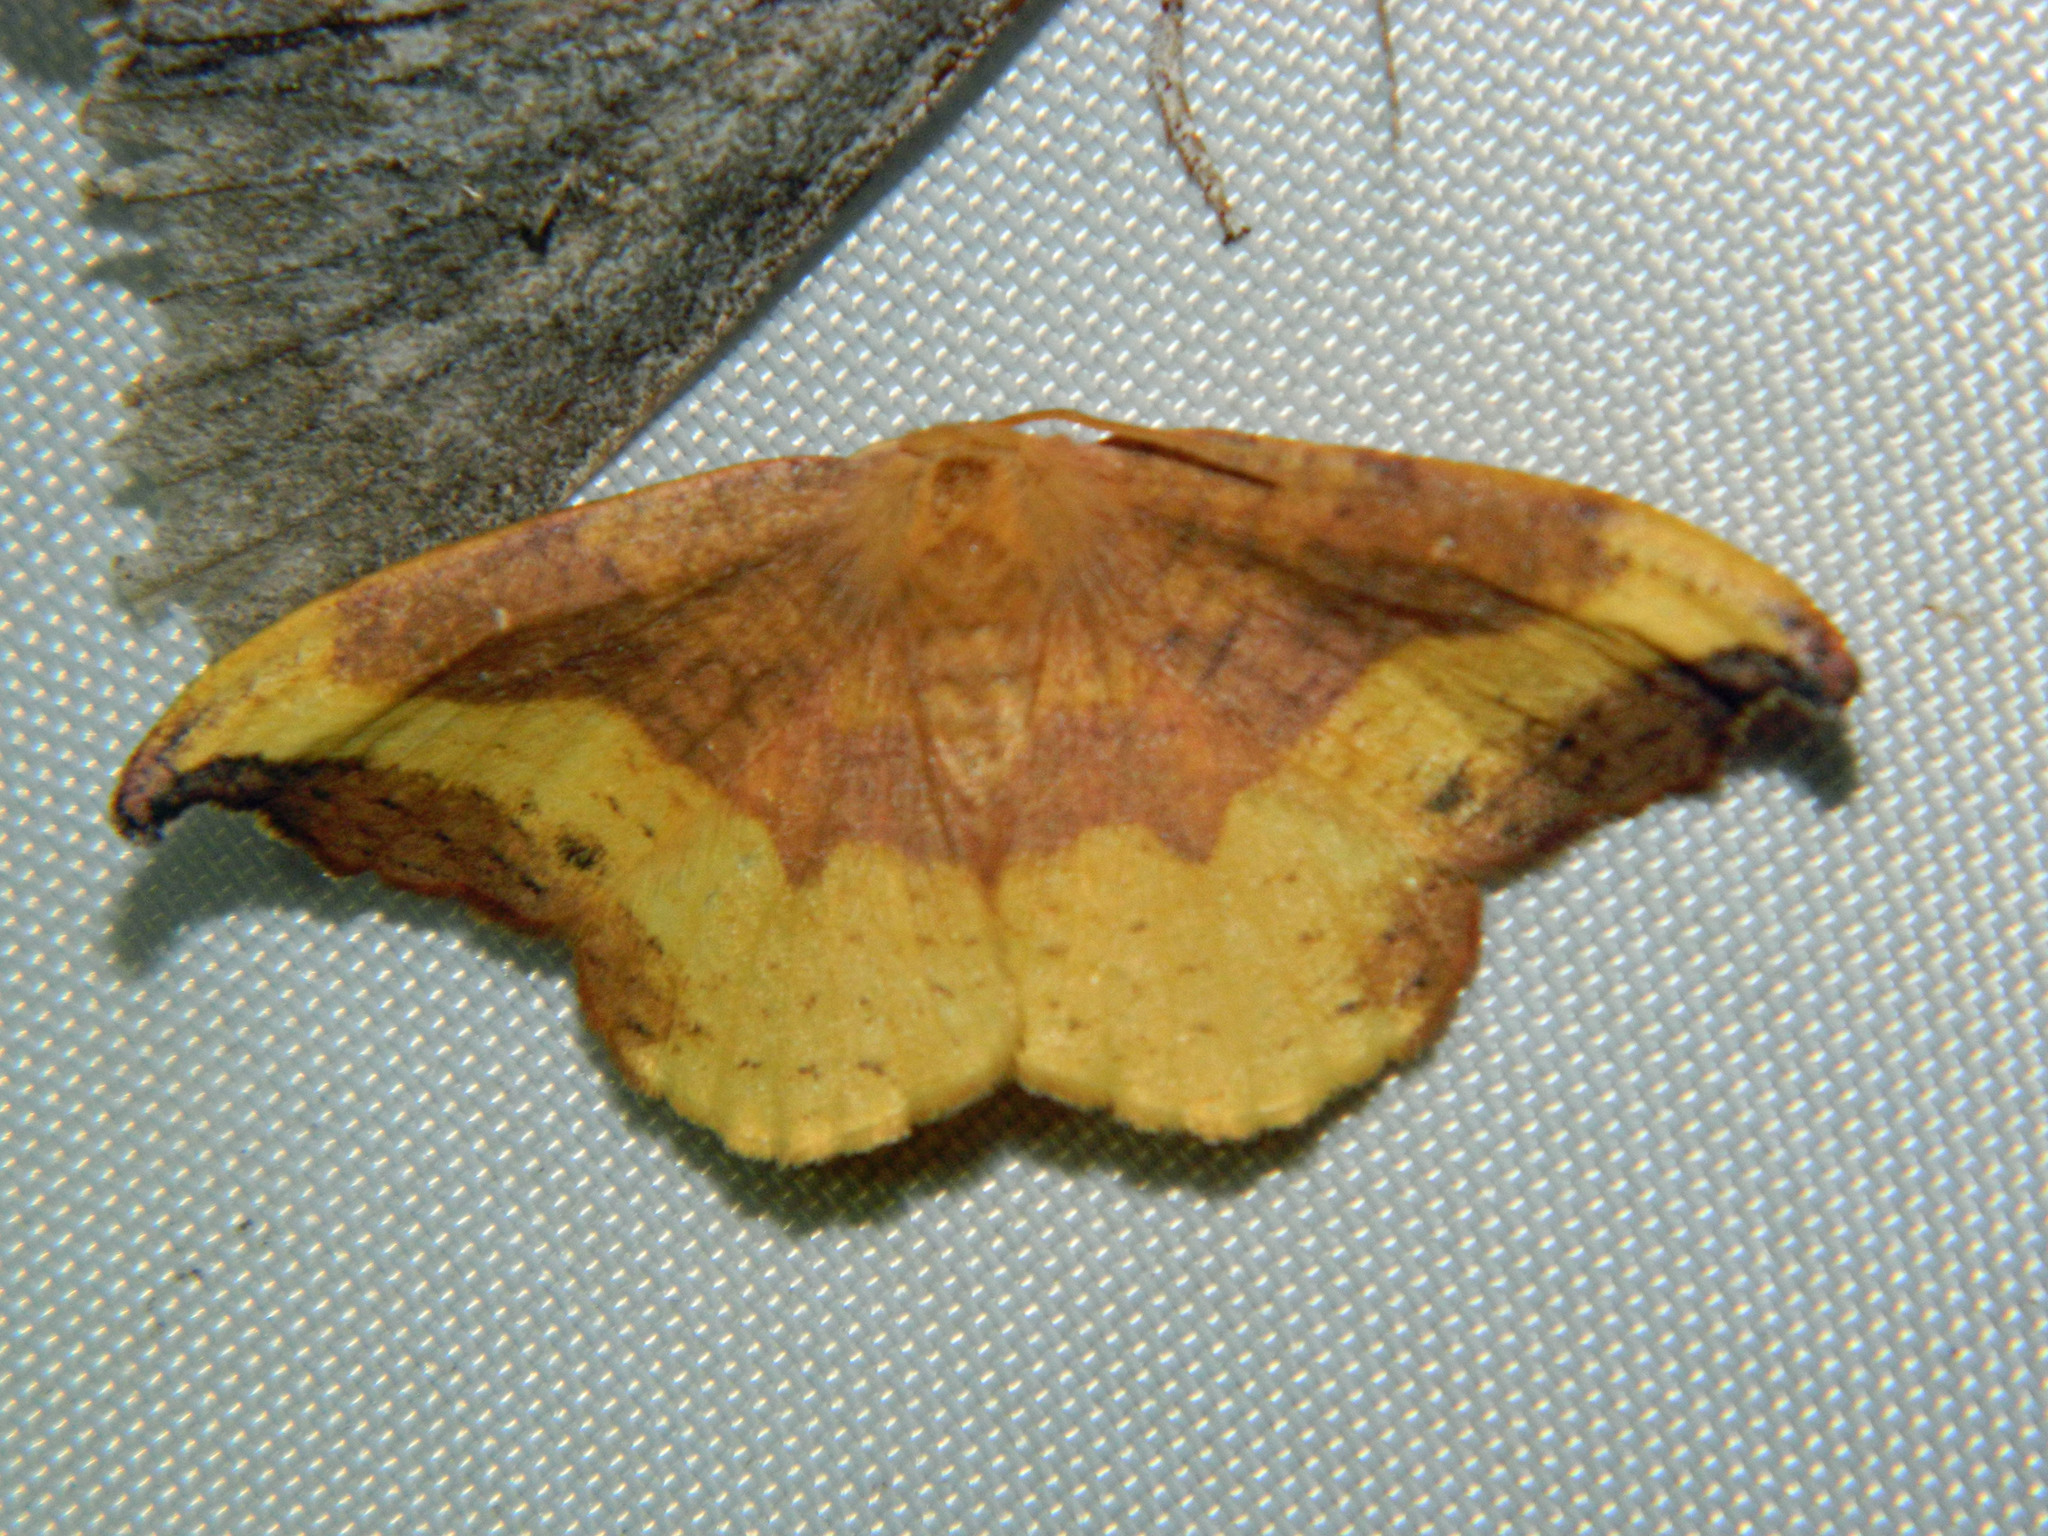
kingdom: Animalia
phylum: Arthropoda
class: Insecta
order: Lepidoptera
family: Drepanidae
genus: Oreta
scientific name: Oreta rosea
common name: Rose hooktip
